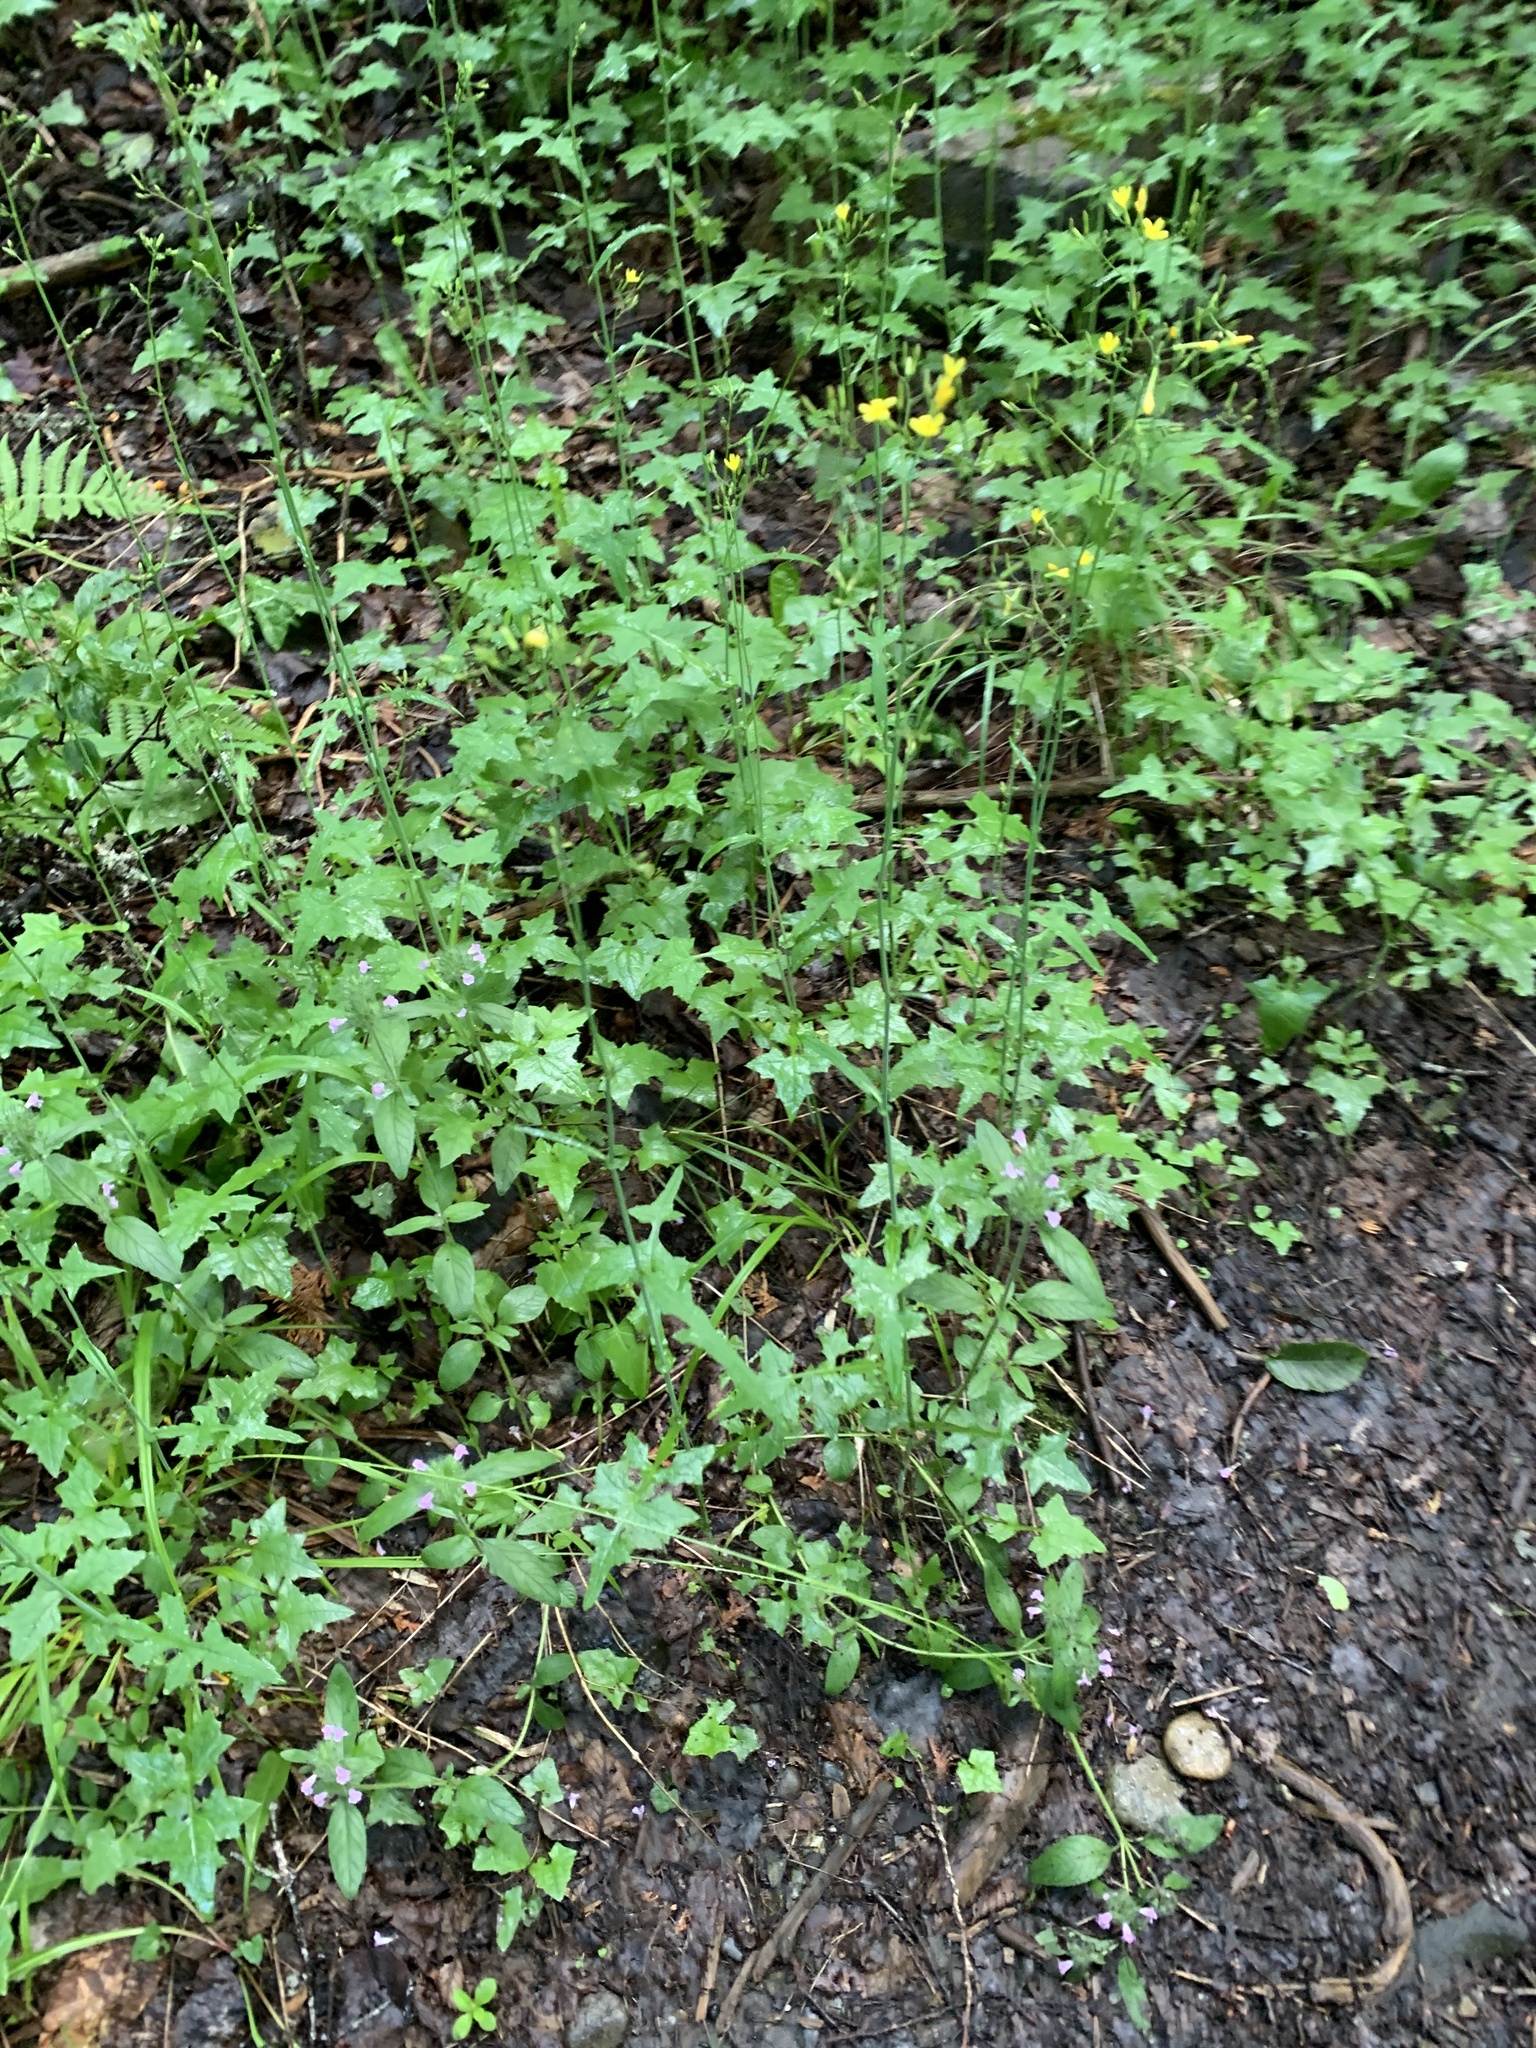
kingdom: Plantae
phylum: Tracheophyta
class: Magnoliopsida
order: Asterales
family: Asteraceae
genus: Mycelis
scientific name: Mycelis muralis
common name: Wall lettuce
